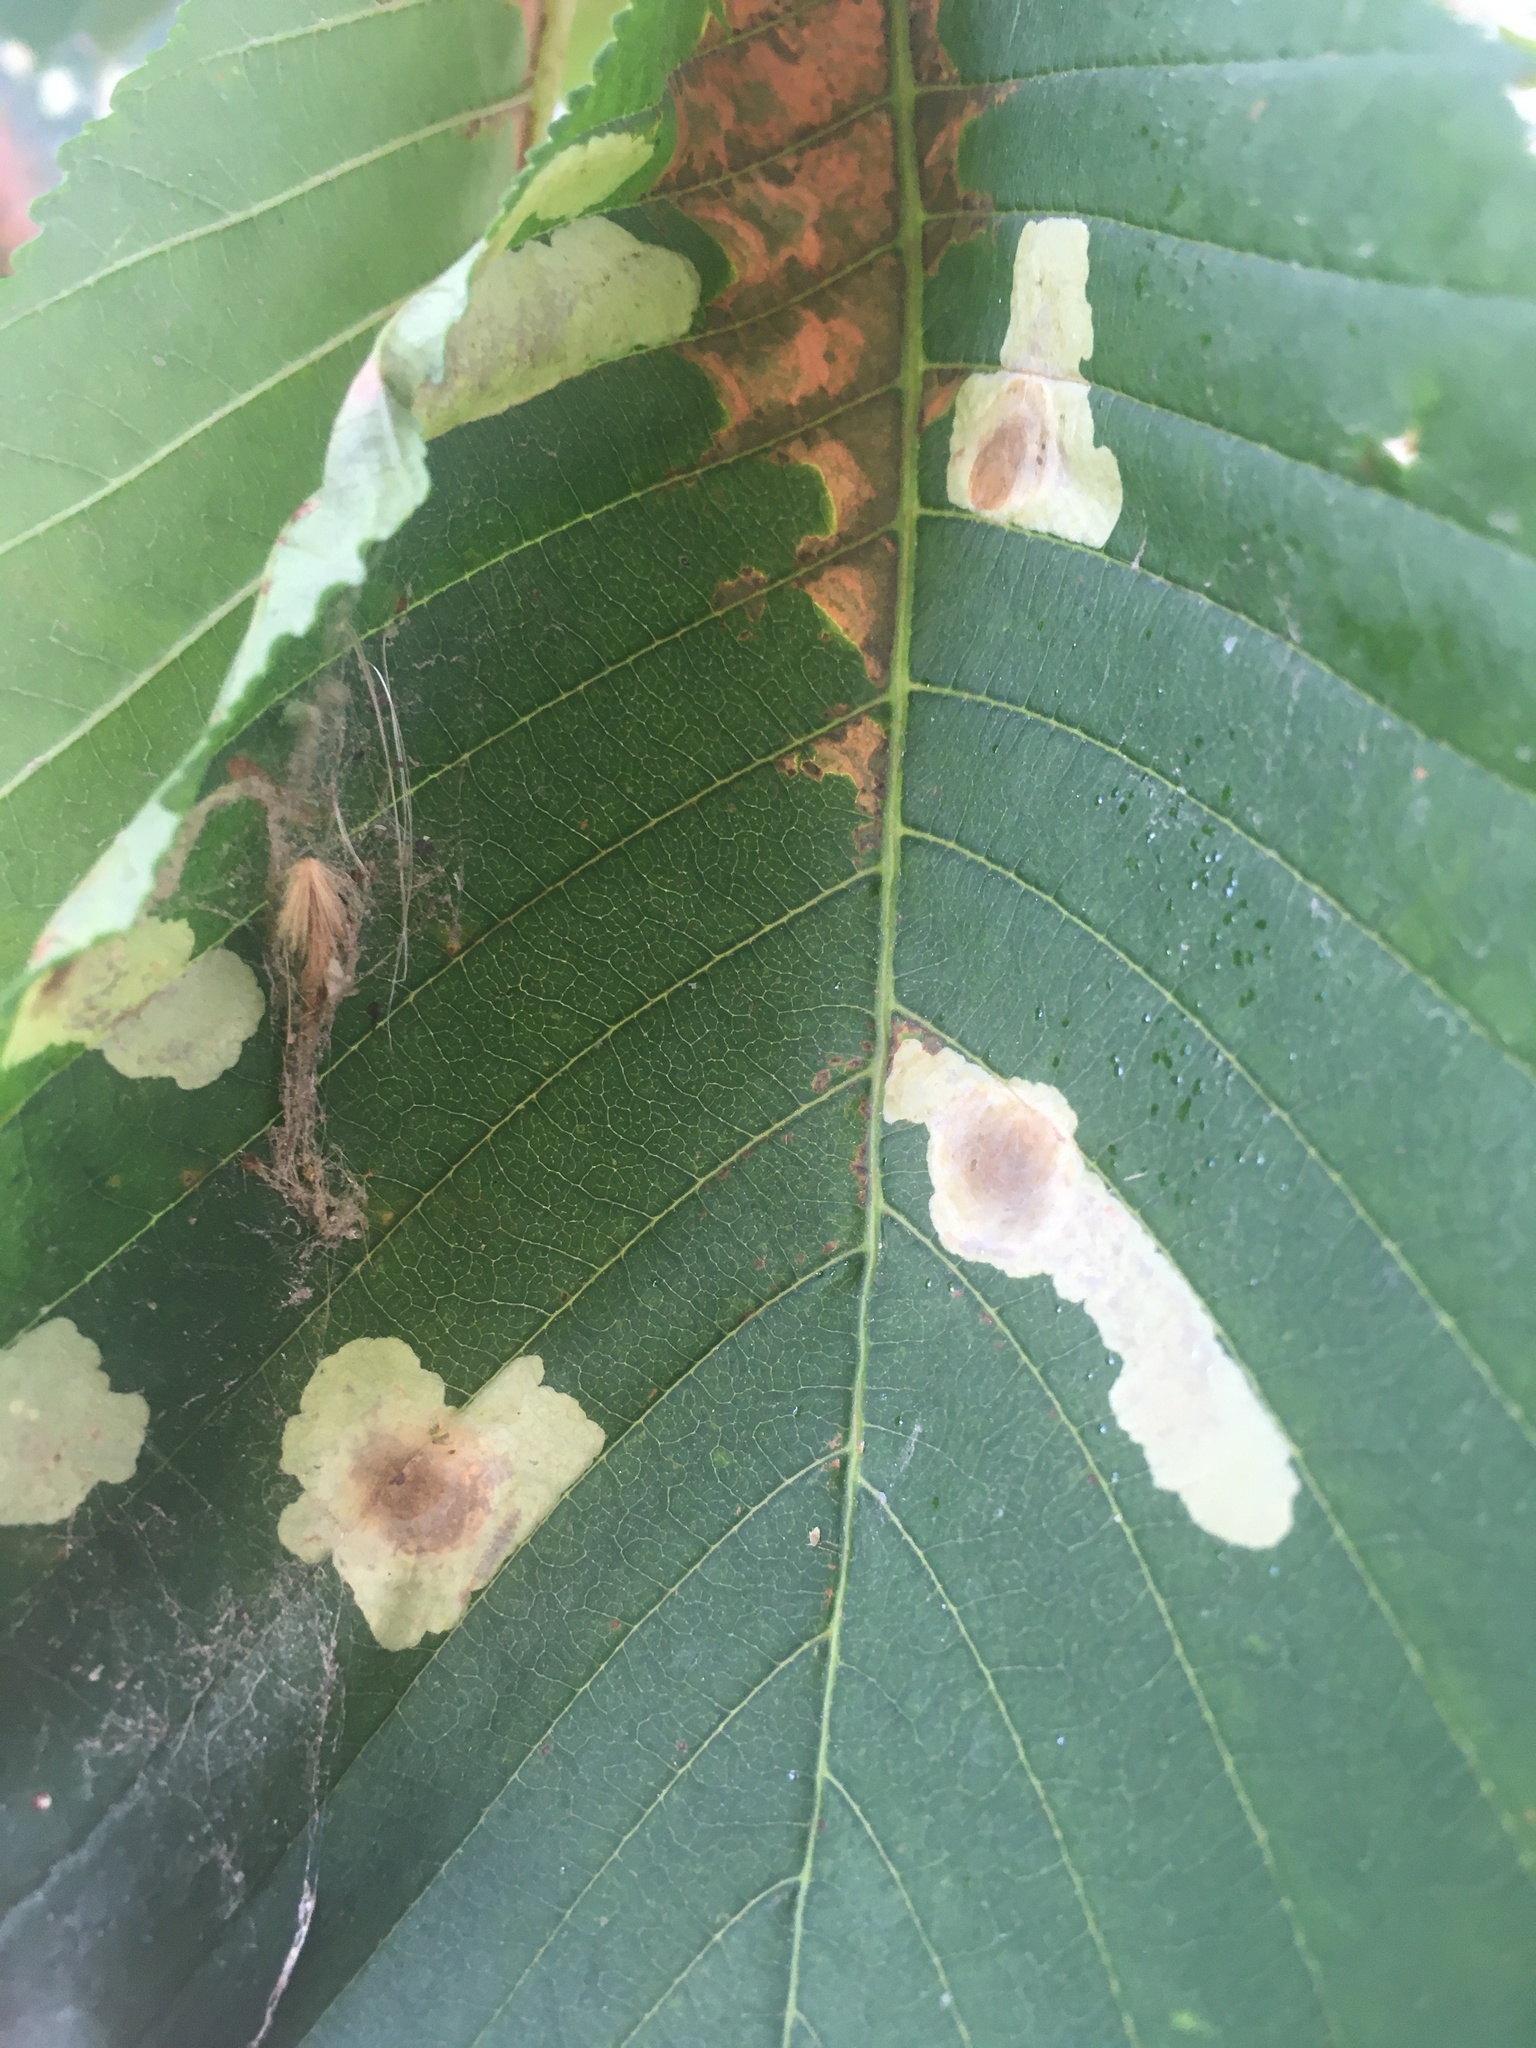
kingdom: Animalia
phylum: Arthropoda
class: Insecta
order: Lepidoptera
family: Gracillariidae
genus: Cameraria
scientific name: Cameraria ohridella
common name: Horse-chestnut leaf-miner
